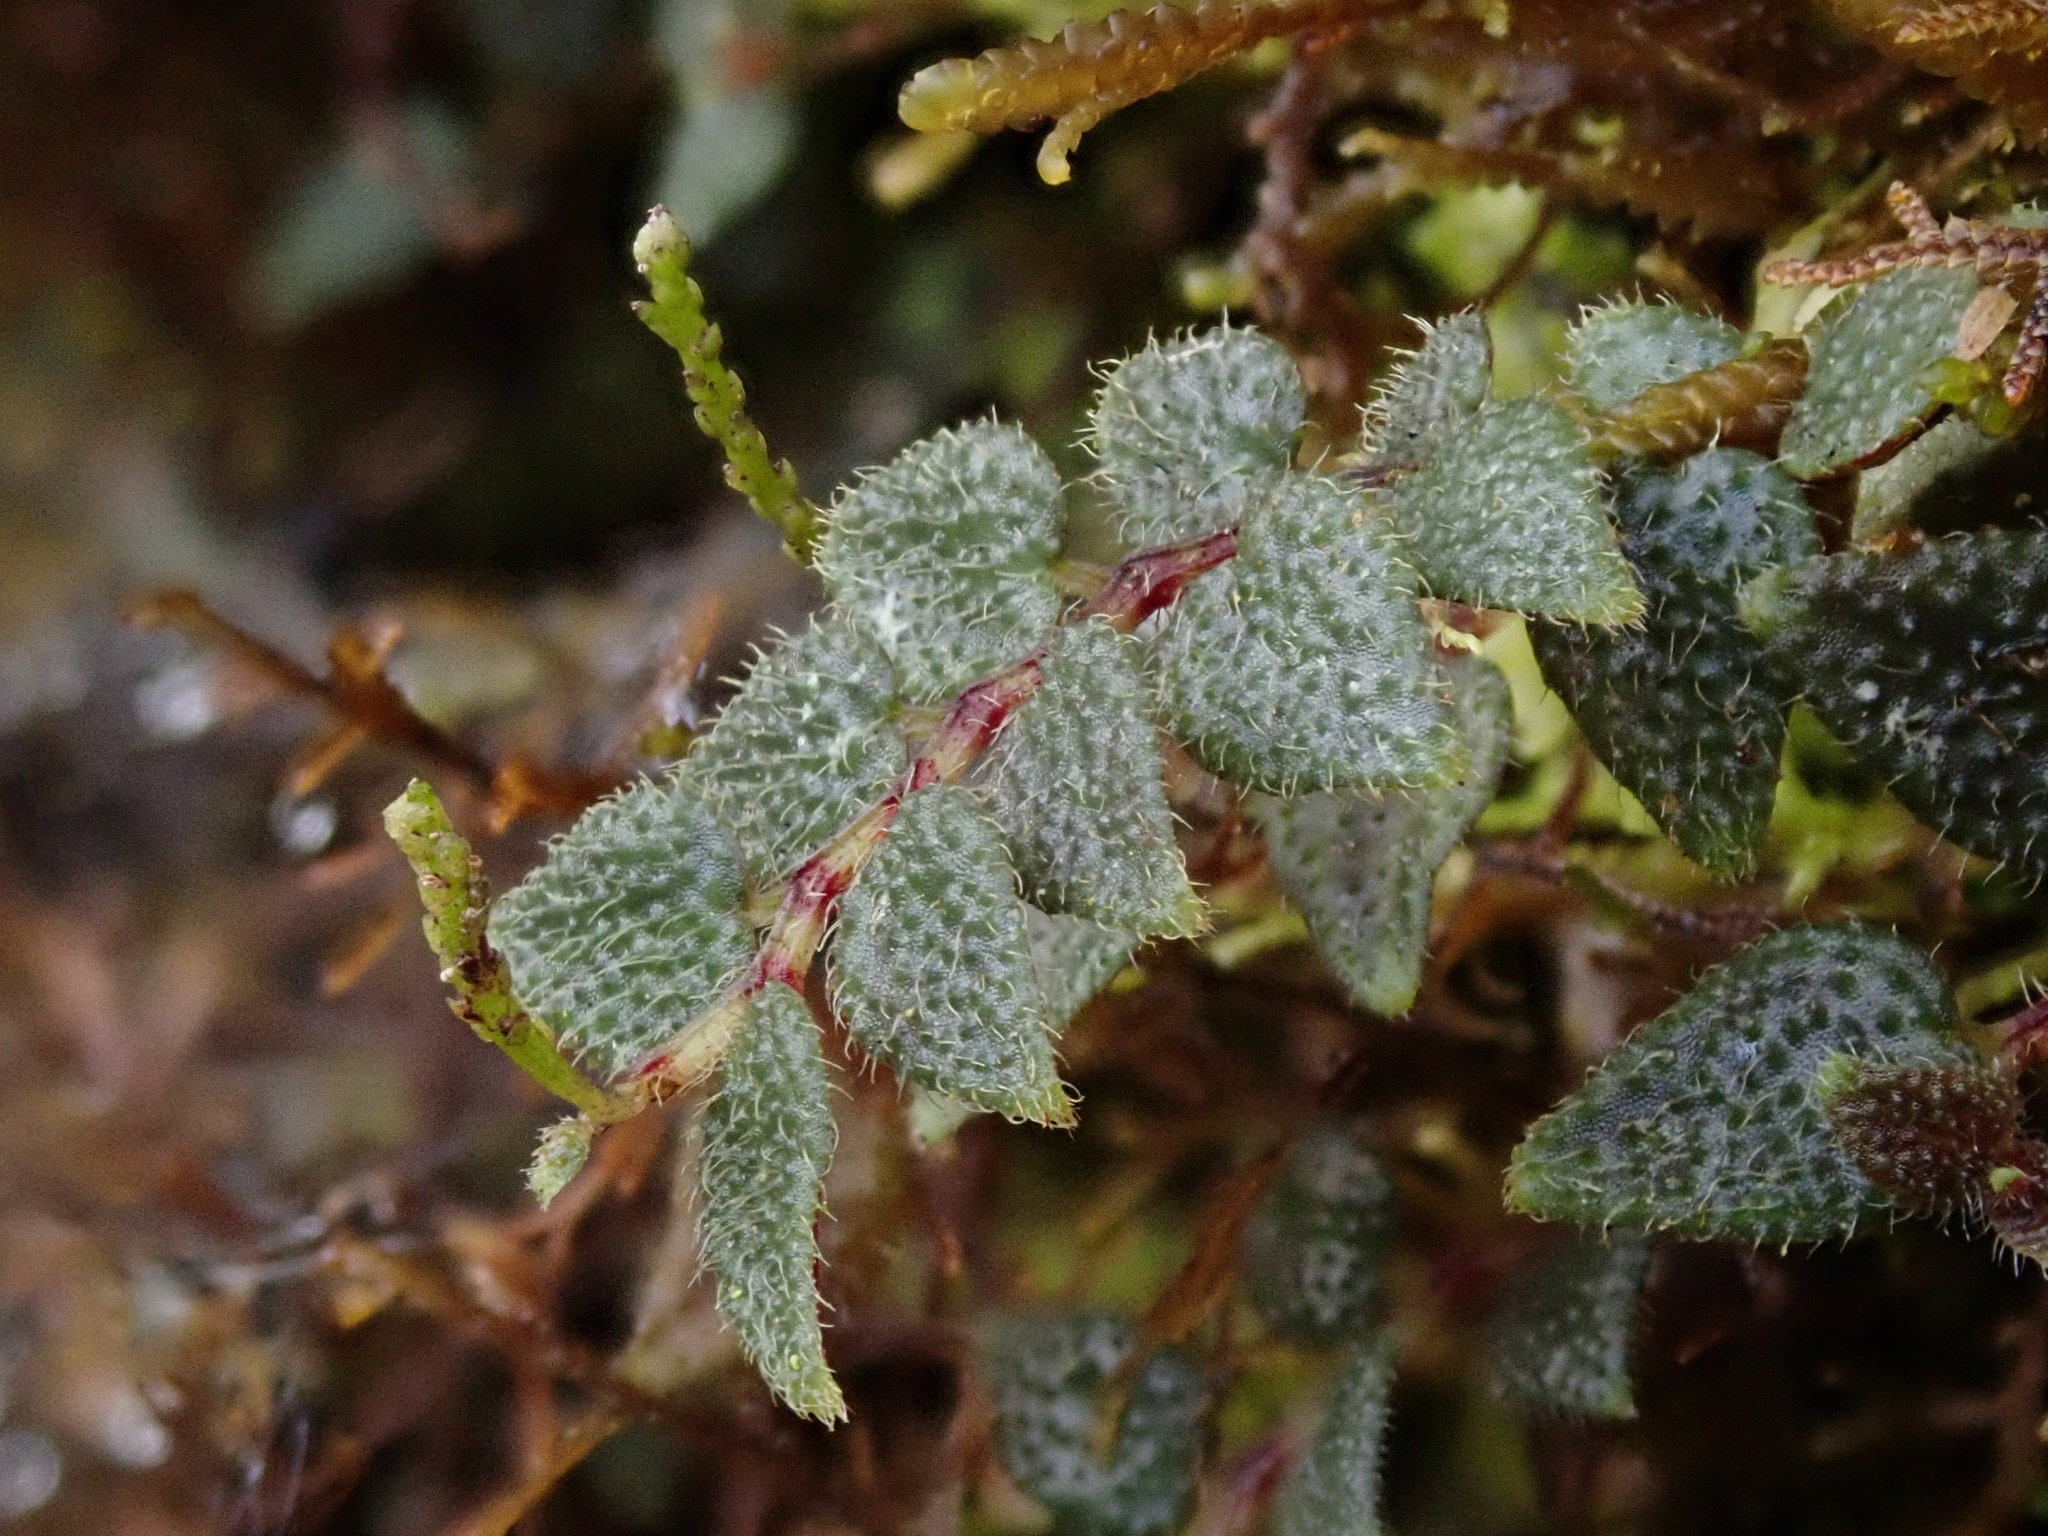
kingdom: Plantae
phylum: Tracheophyta
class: Magnoliopsida
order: Piperales
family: Piperaceae
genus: Peperomia
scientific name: Peperomia tovariana
